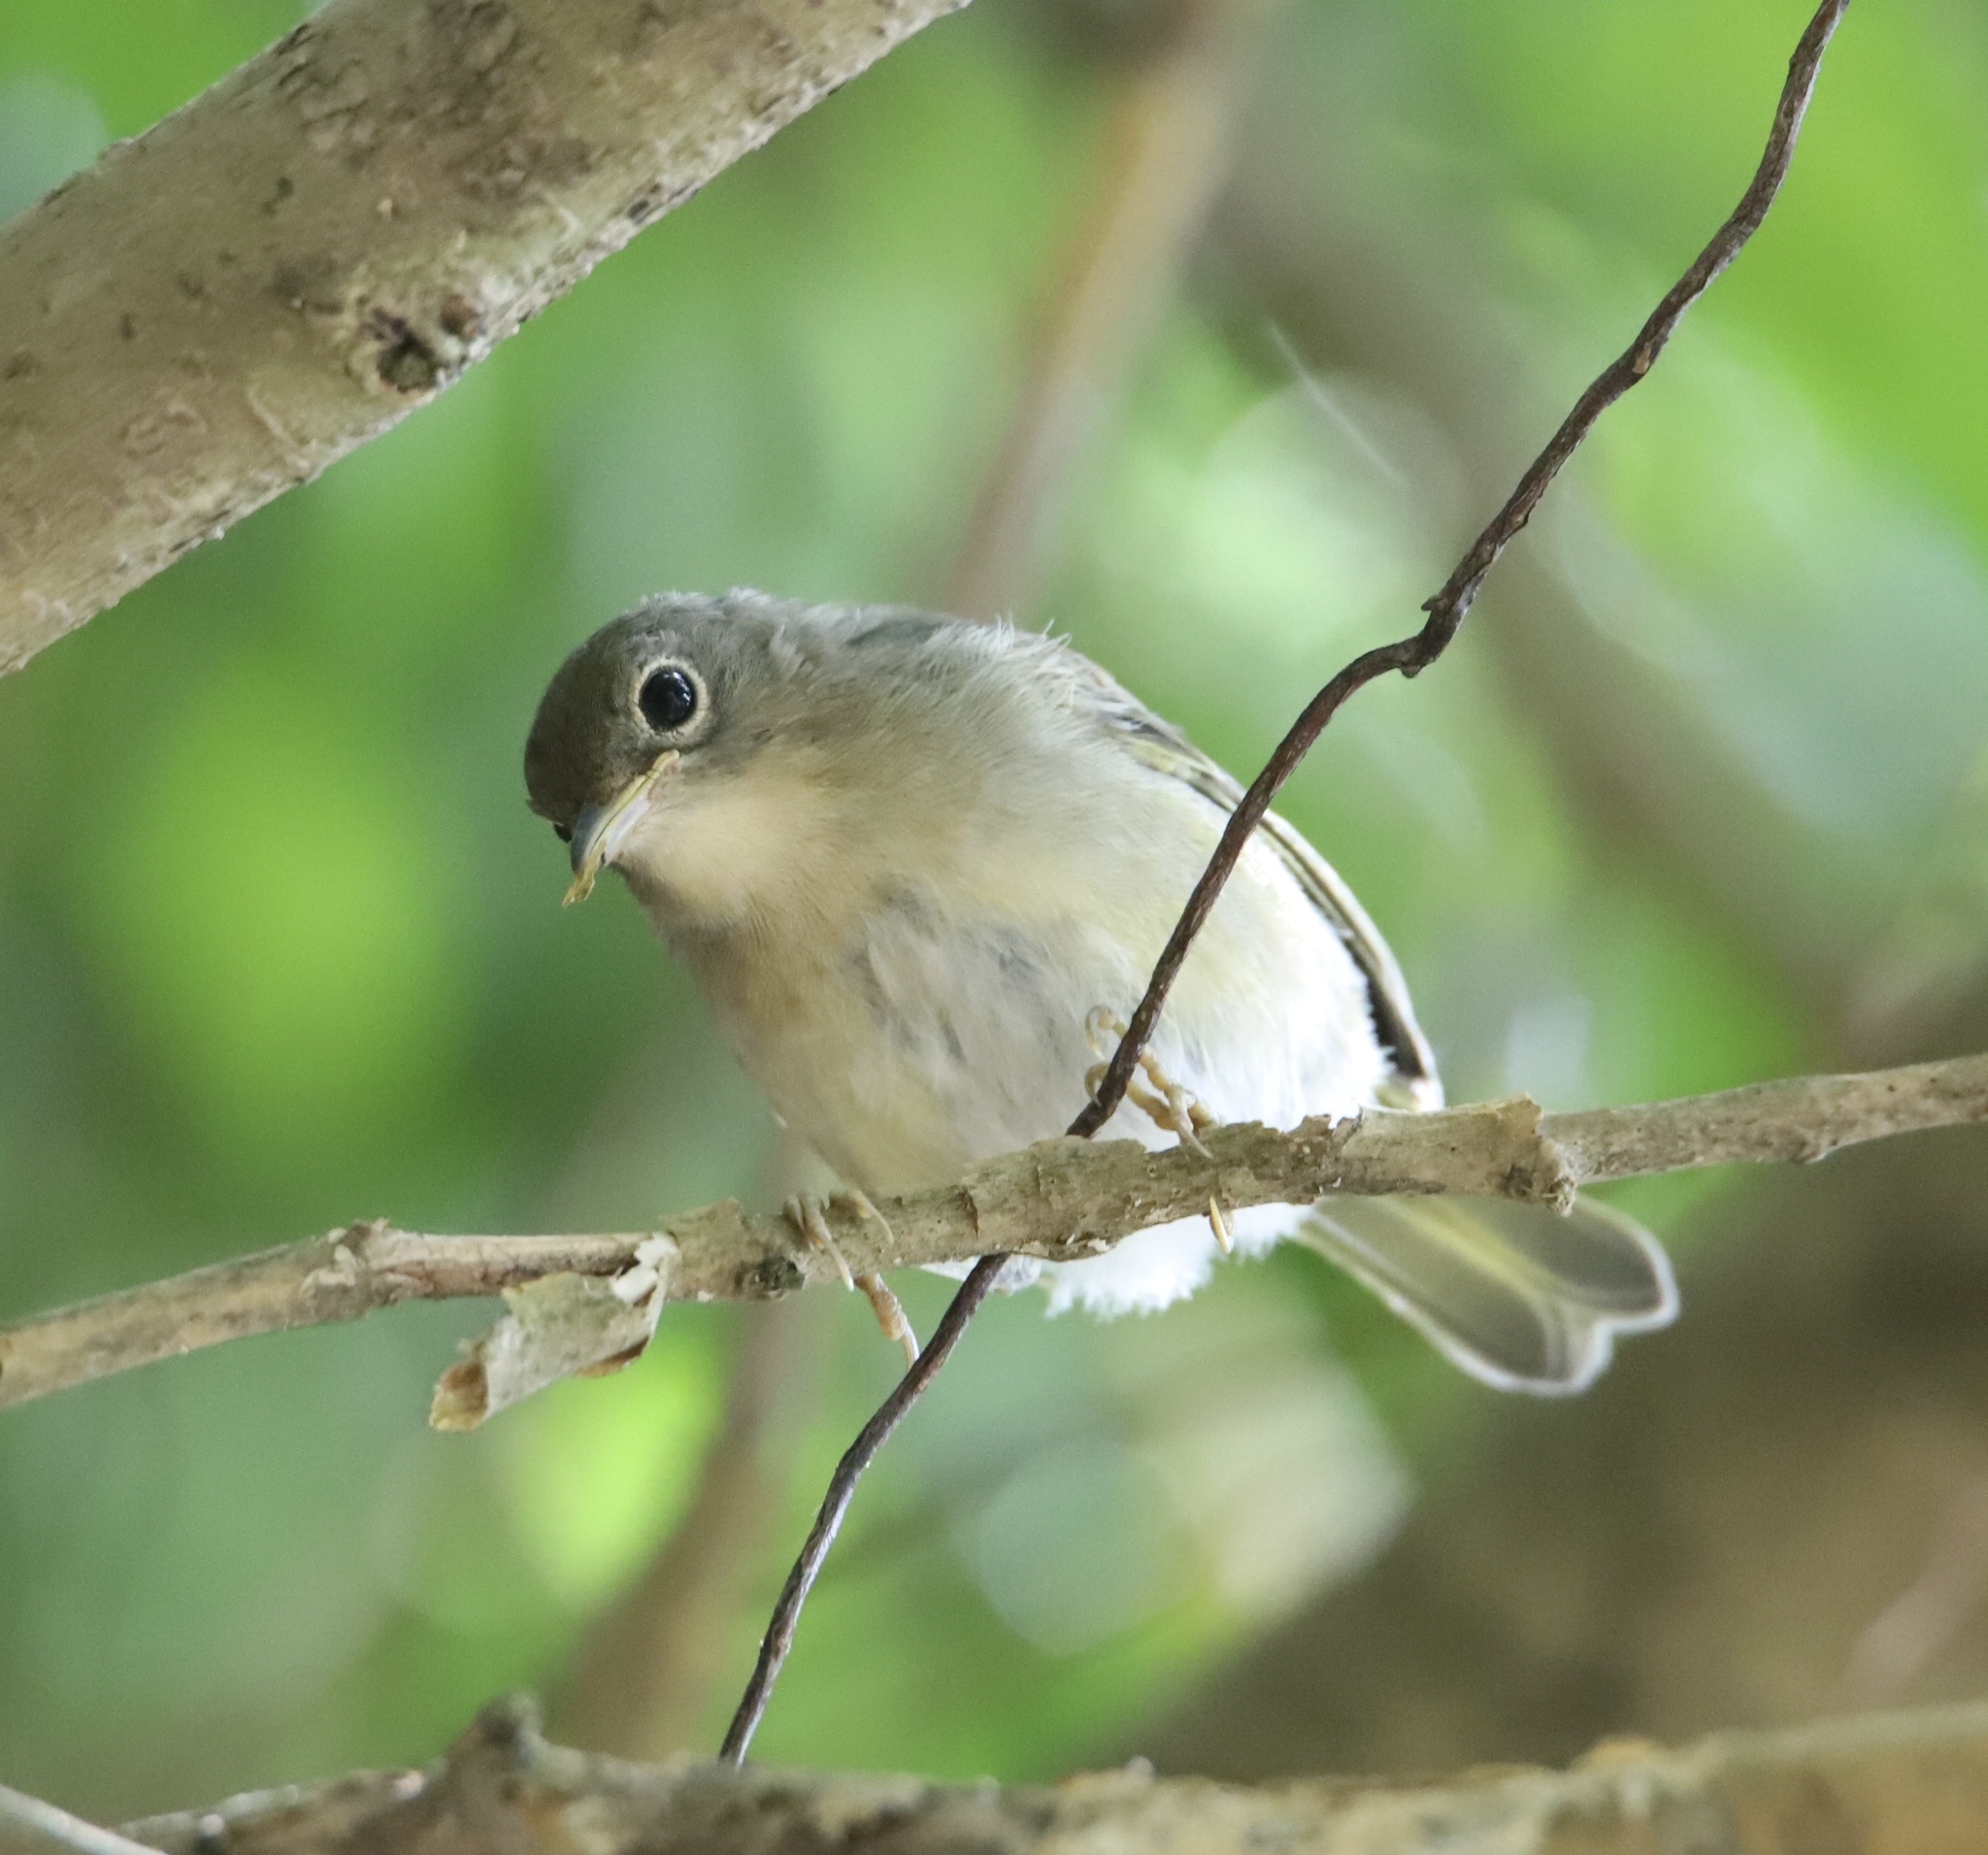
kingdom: Animalia
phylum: Chordata
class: Aves
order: Passeriformes
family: Vireonidae
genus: Hylophilus
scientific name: Hylophilus decurtatus
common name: Lesser greenlet
